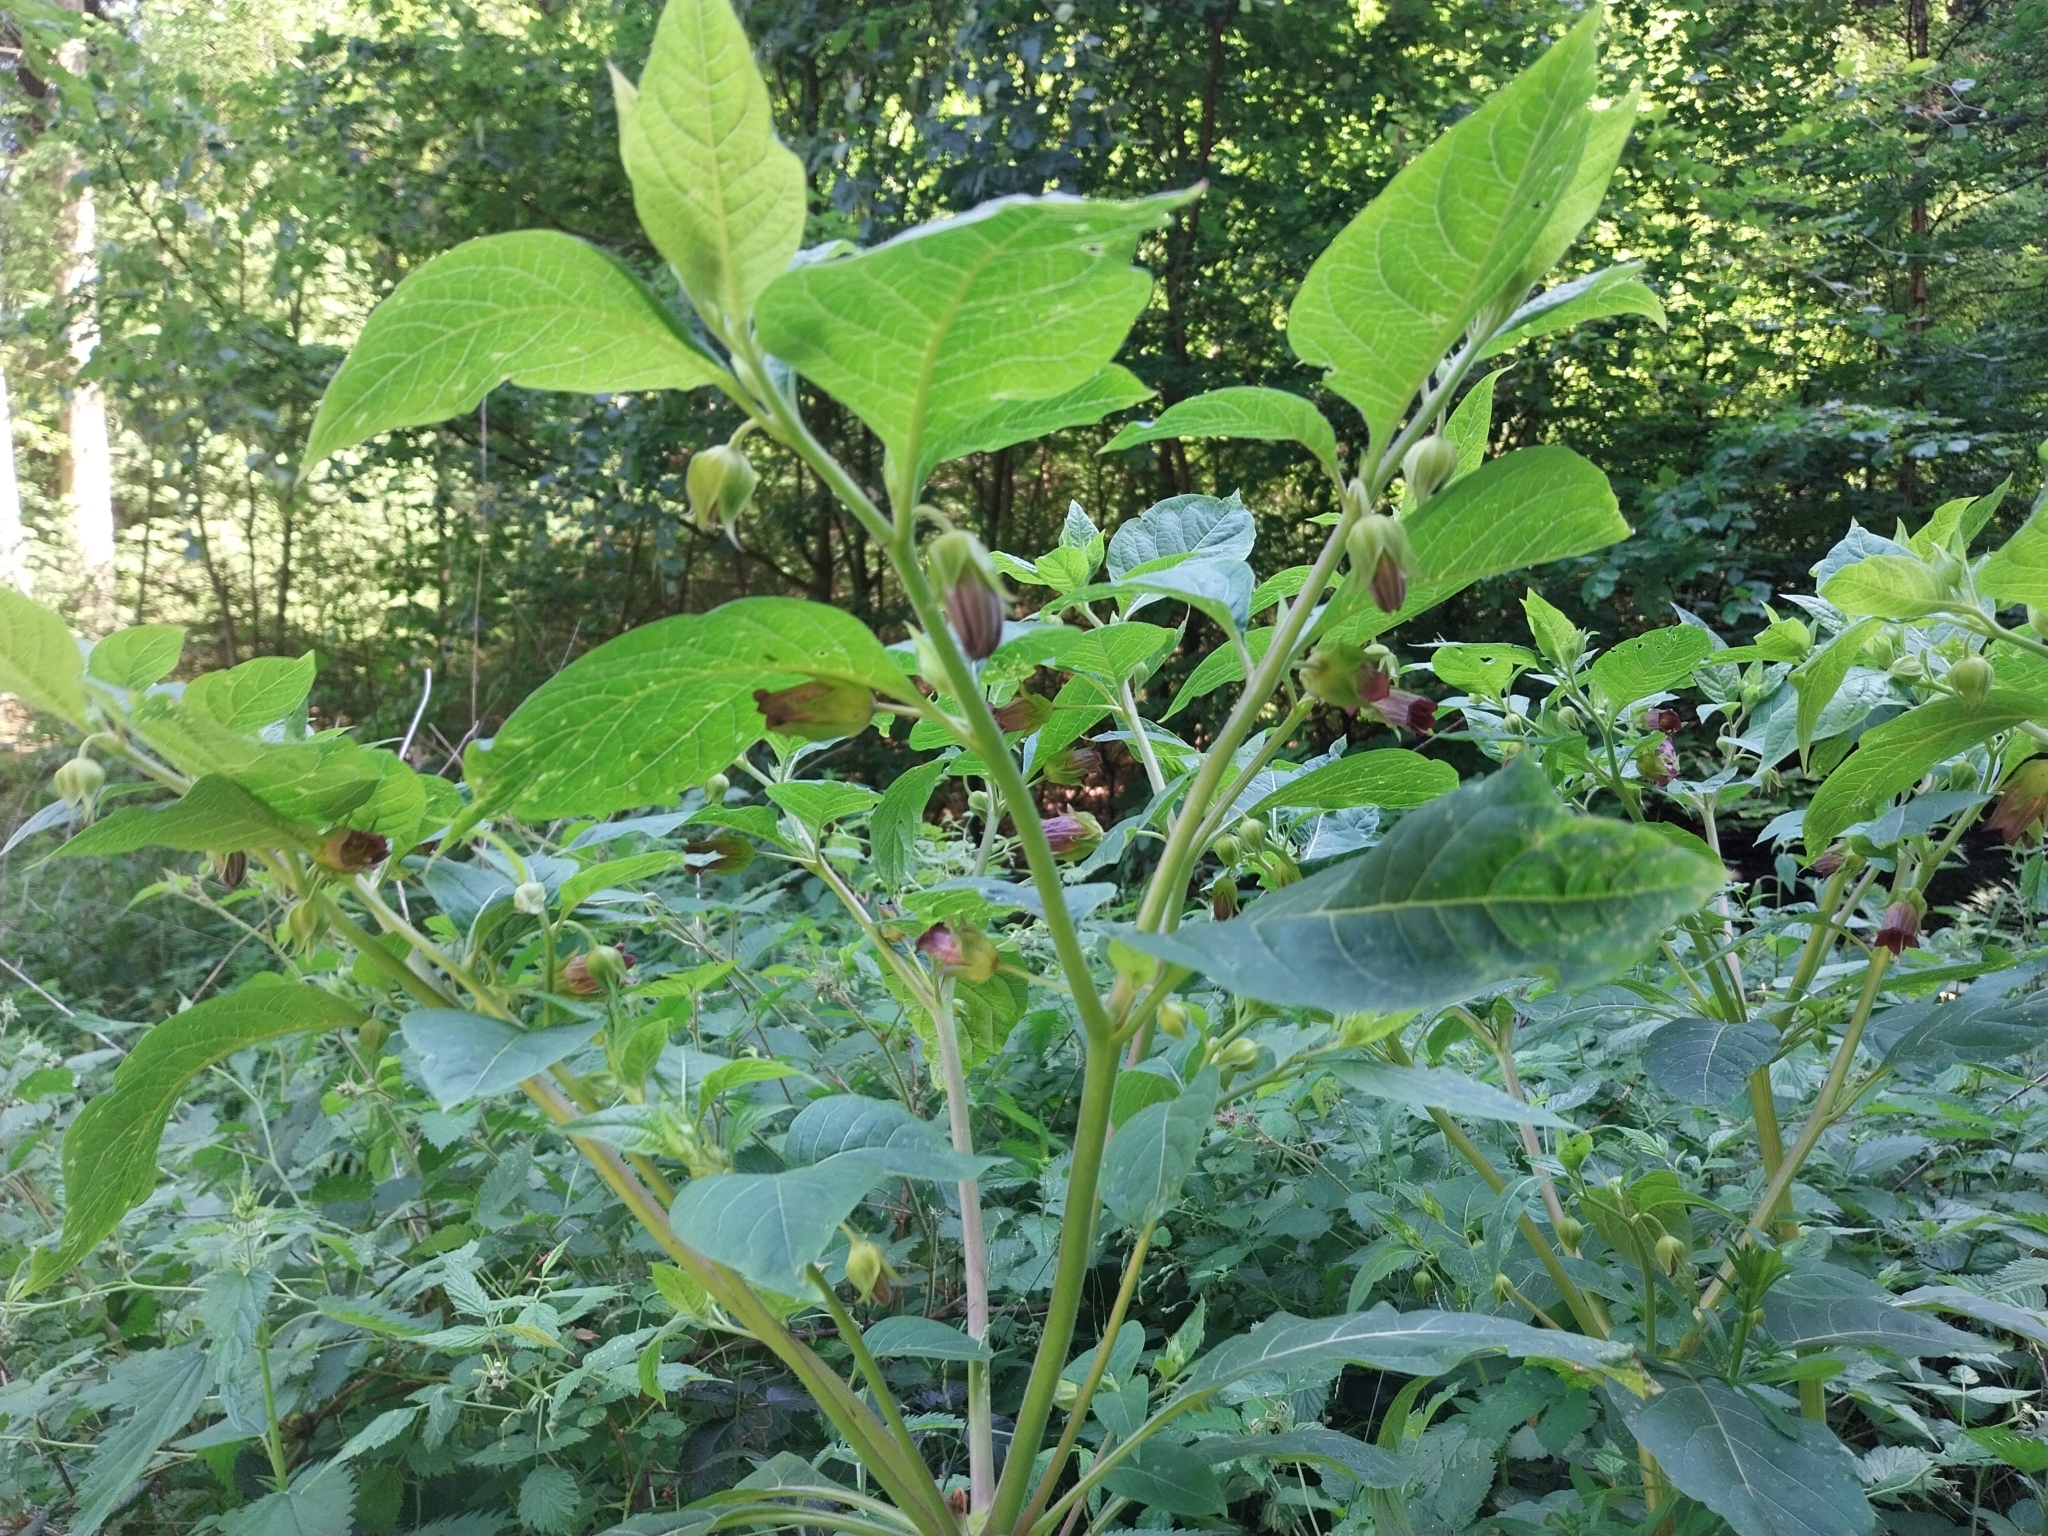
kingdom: Plantae
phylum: Tracheophyta
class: Magnoliopsida
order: Solanales
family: Solanaceae
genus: Atropa
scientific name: Atropa belladonna
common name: Deadly nightshade
